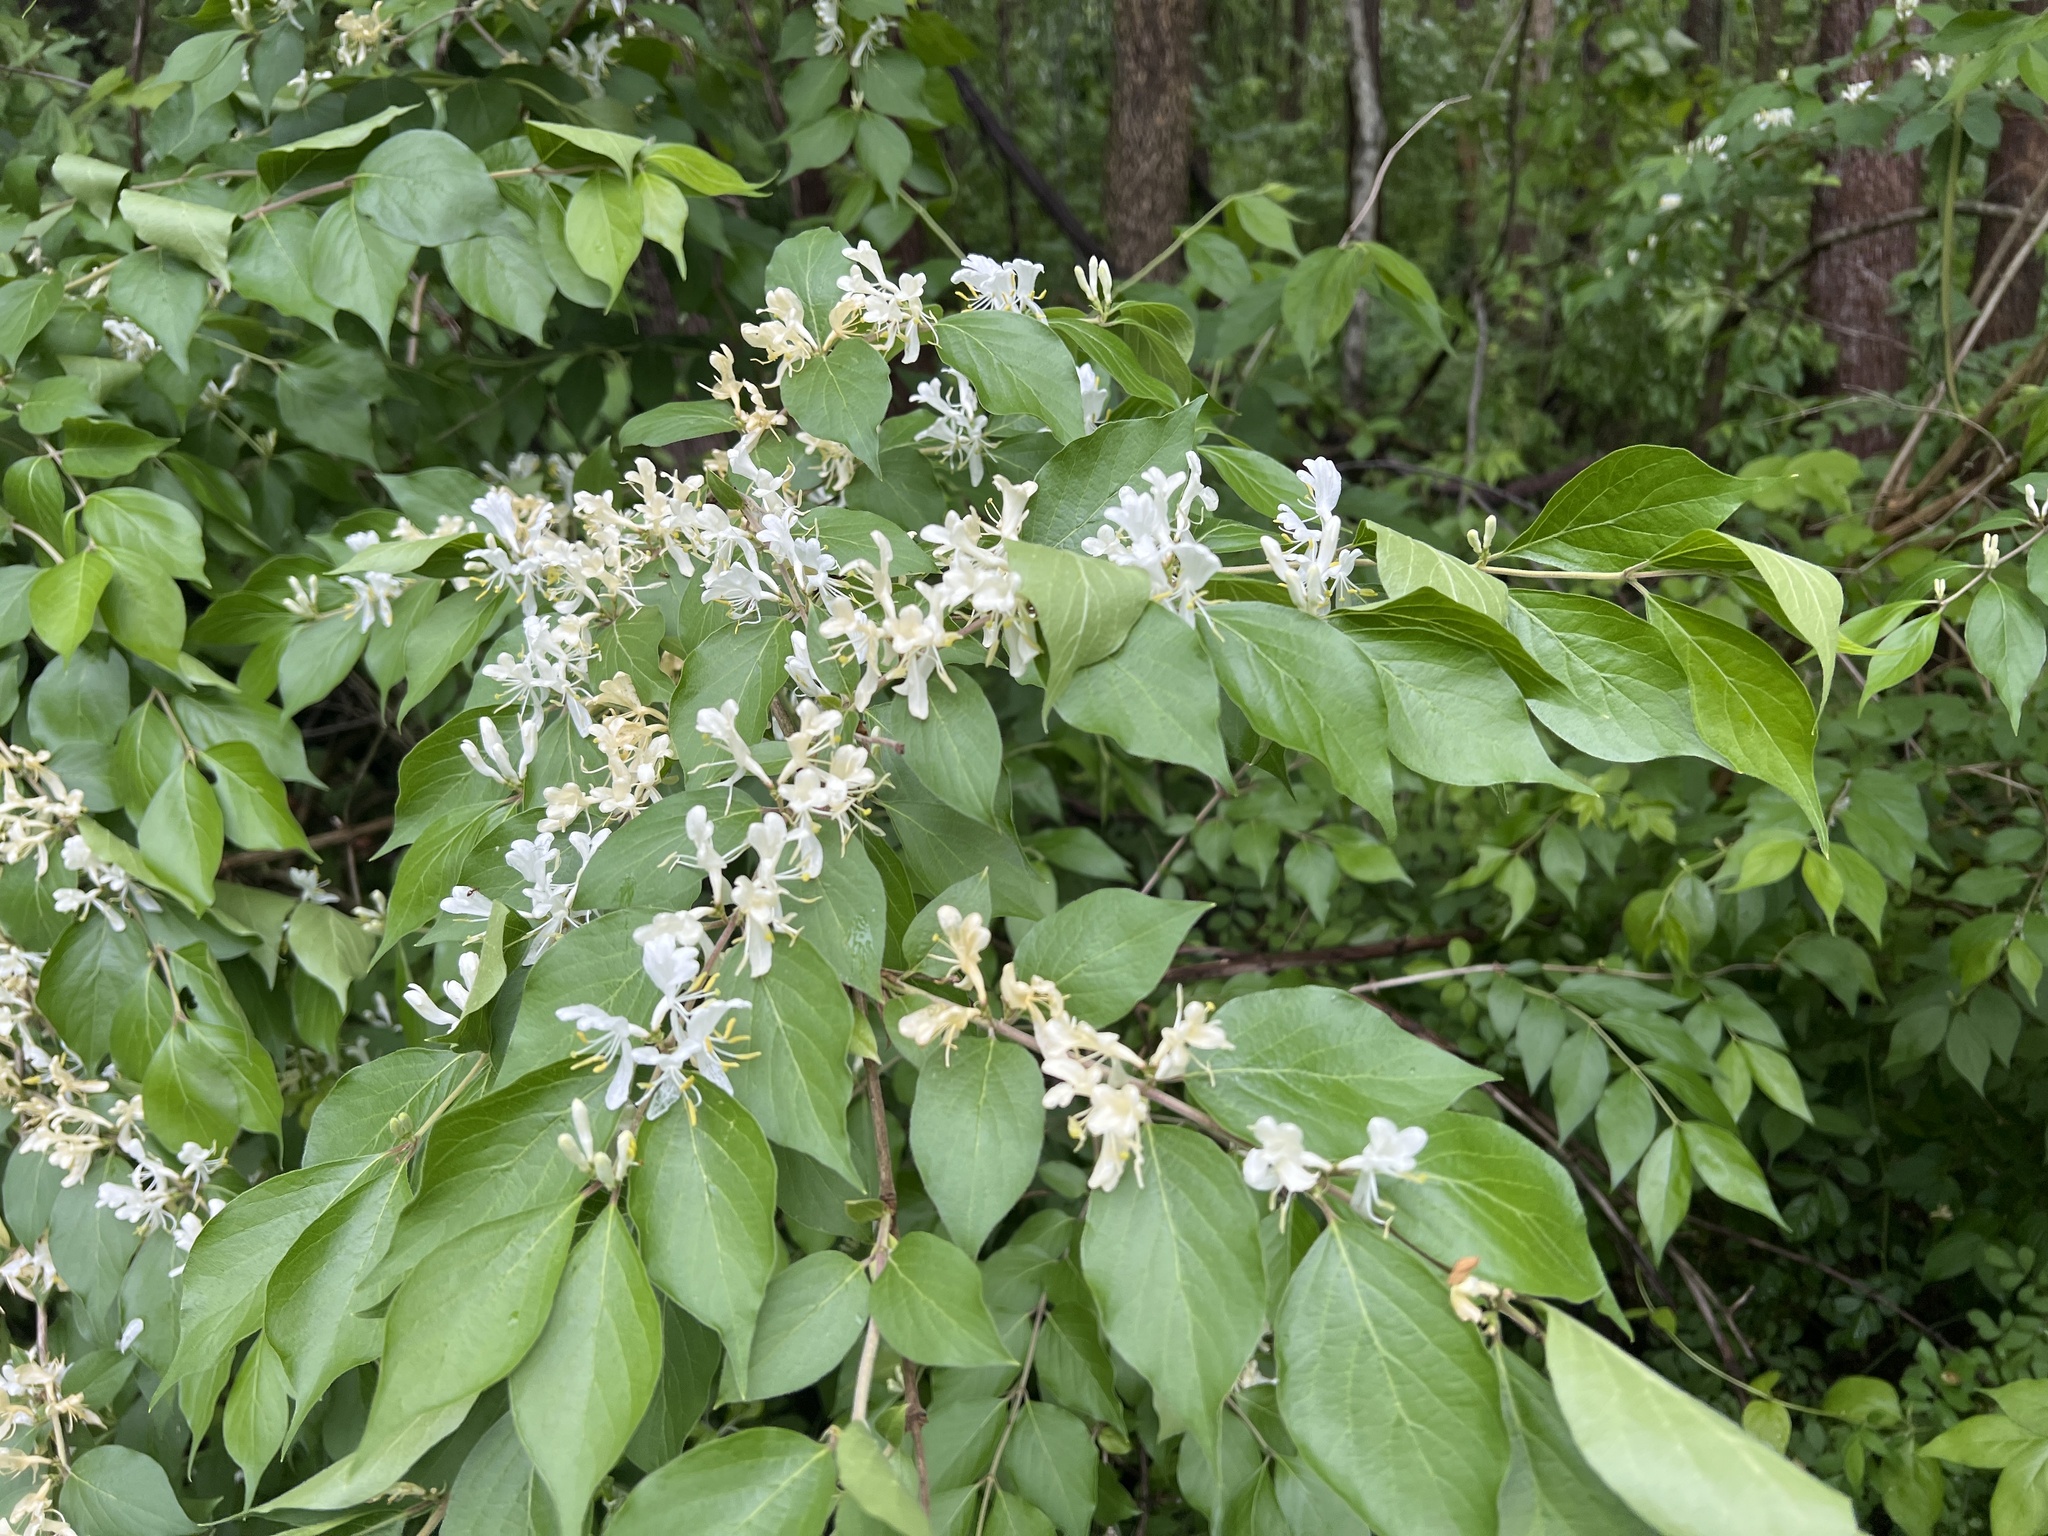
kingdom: Plantae
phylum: Tracheophyta
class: Magnoliopsida
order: Dipsacales
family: Caprifoliaceae
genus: Lonicera
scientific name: Lonicera maackii
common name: Amur honeysuckle
